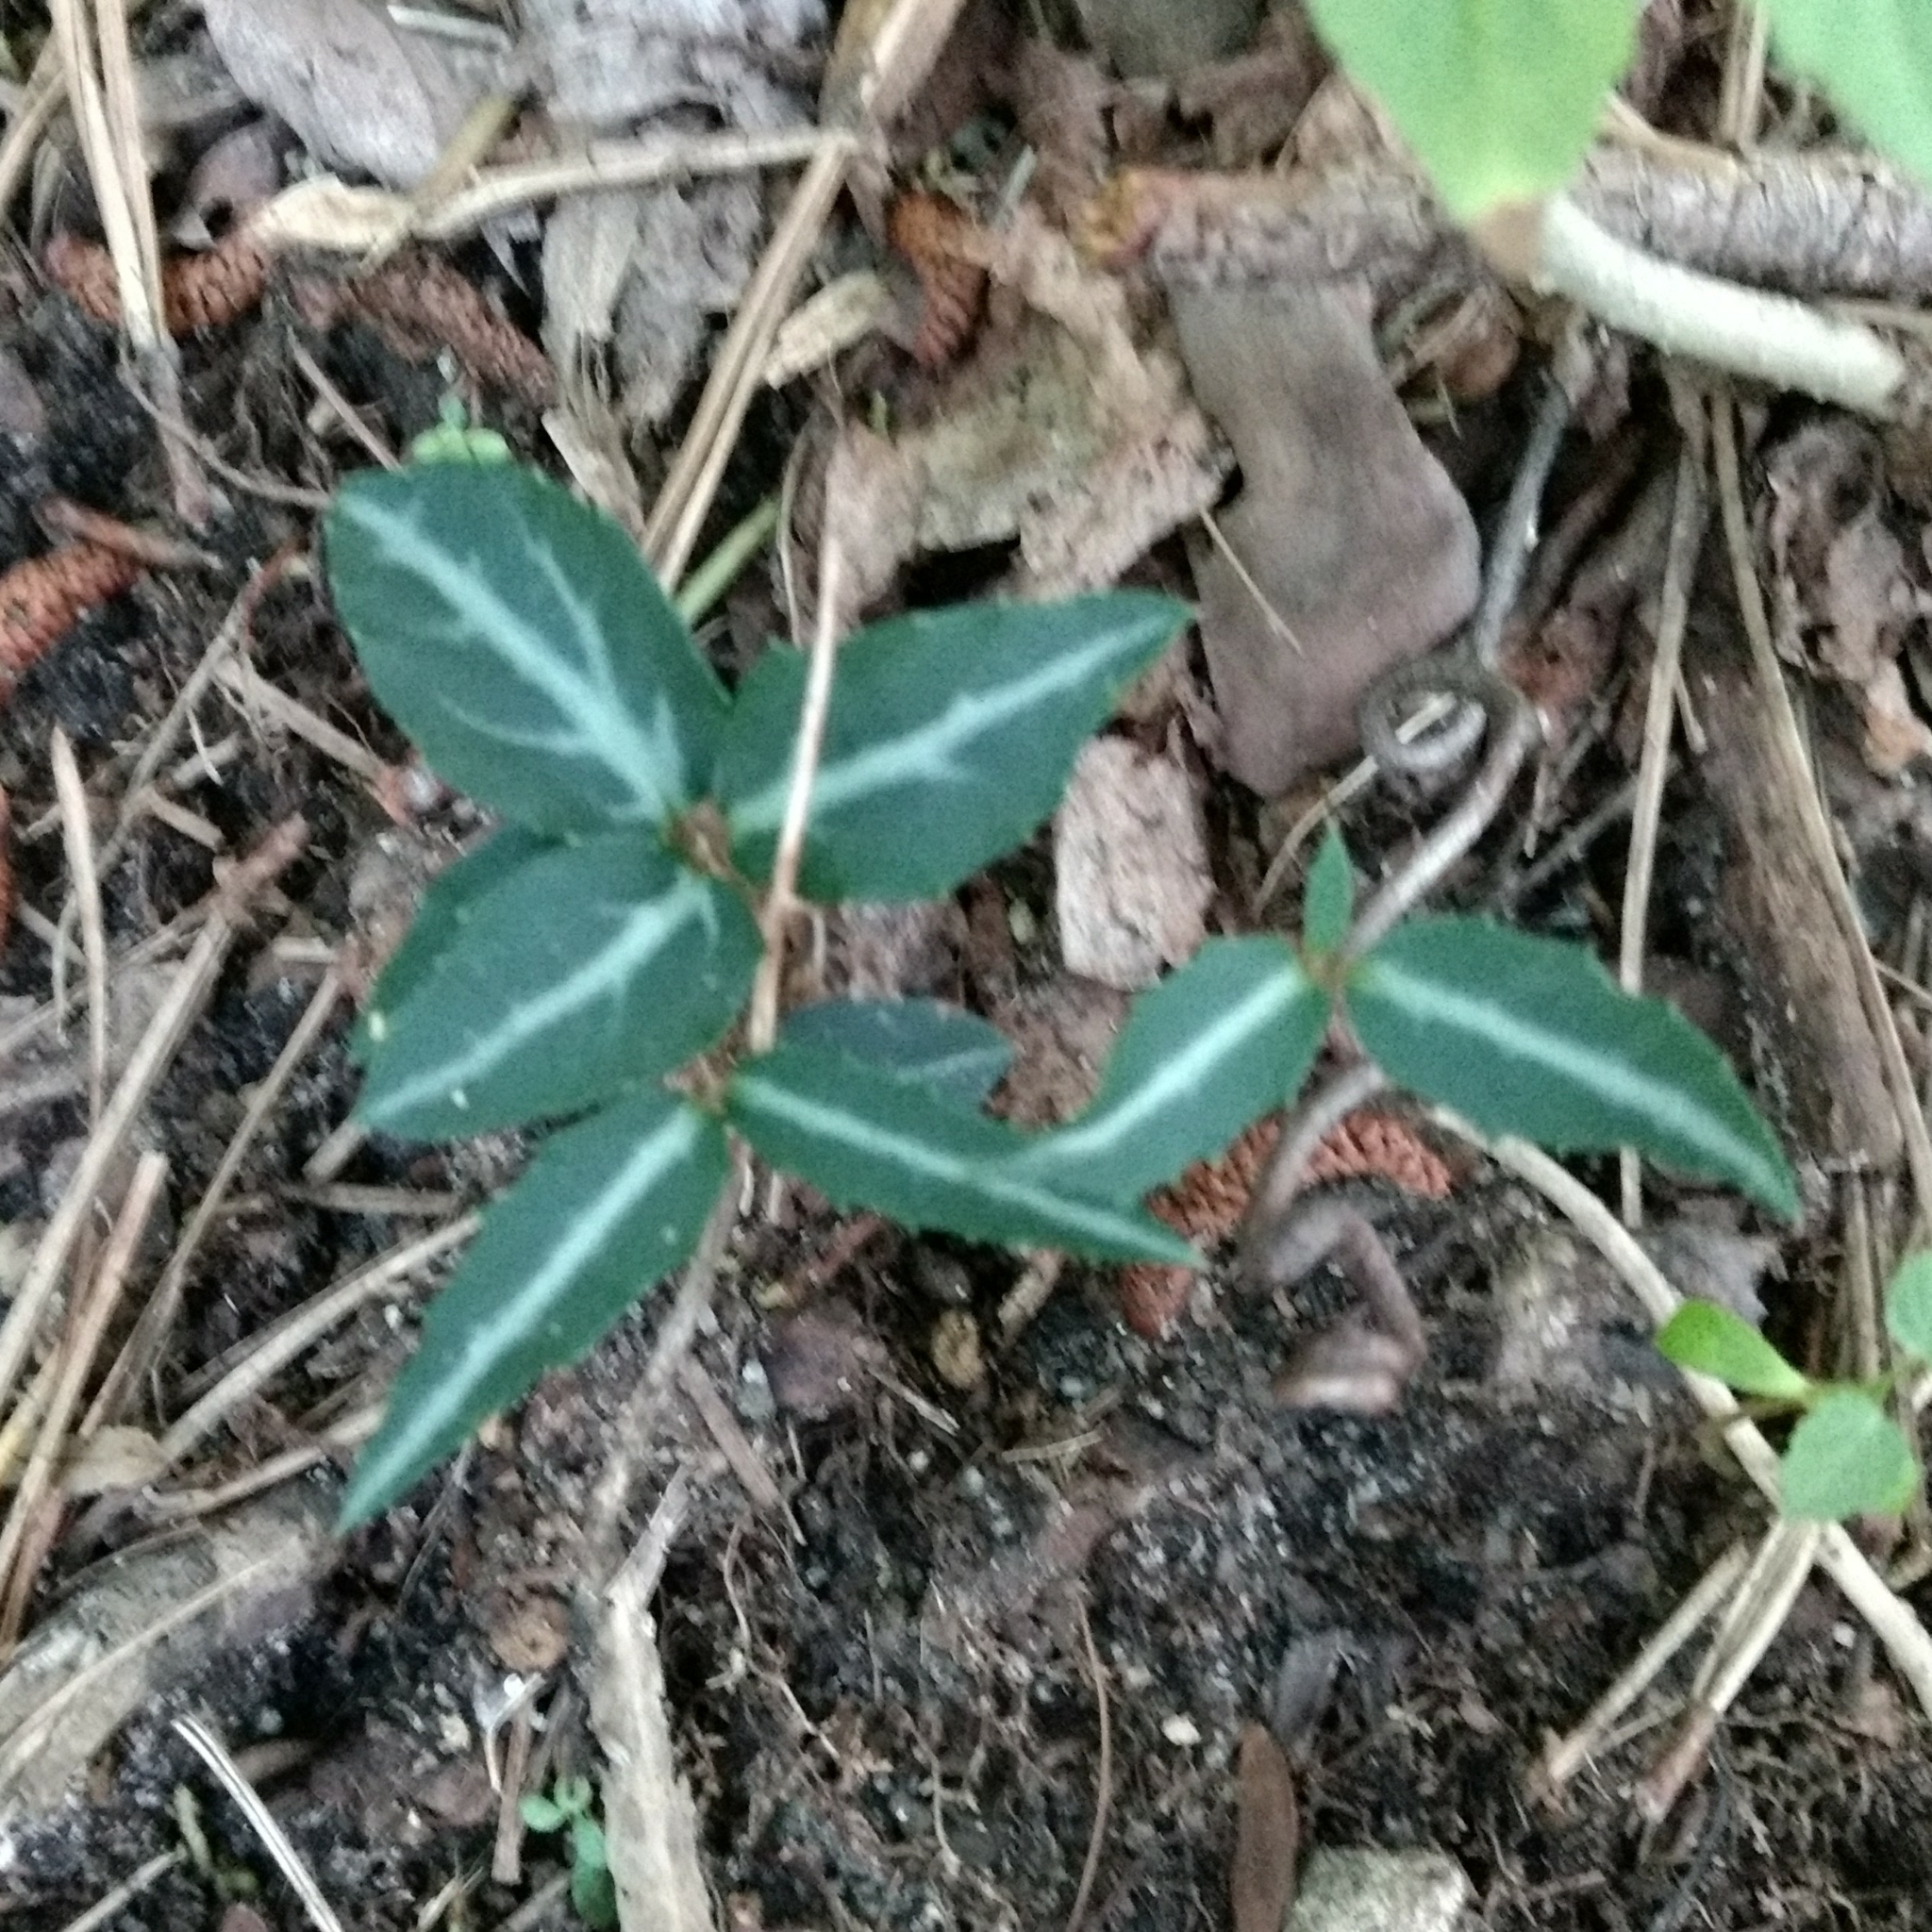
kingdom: Plantae
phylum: Tracheophyta
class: Magnoliopsida
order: Ericales
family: Ericaceae
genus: Chimaphila
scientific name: Chimaphila maculata
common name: Spotted pipsissewa
